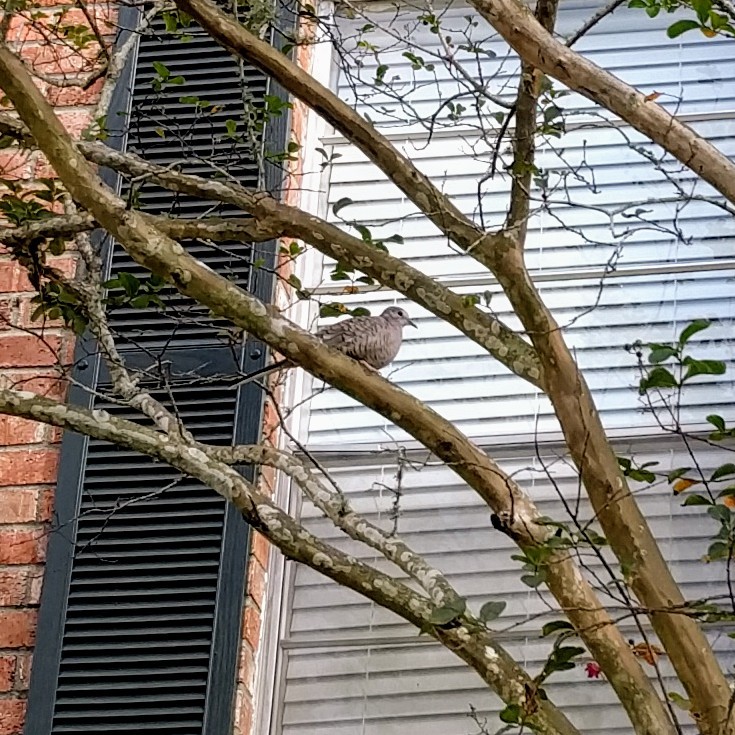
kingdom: Animalia
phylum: Chordata
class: Aves
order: Columbiformes
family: Columbidae
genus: Columbina
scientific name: Columbina inca
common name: Inca dove
